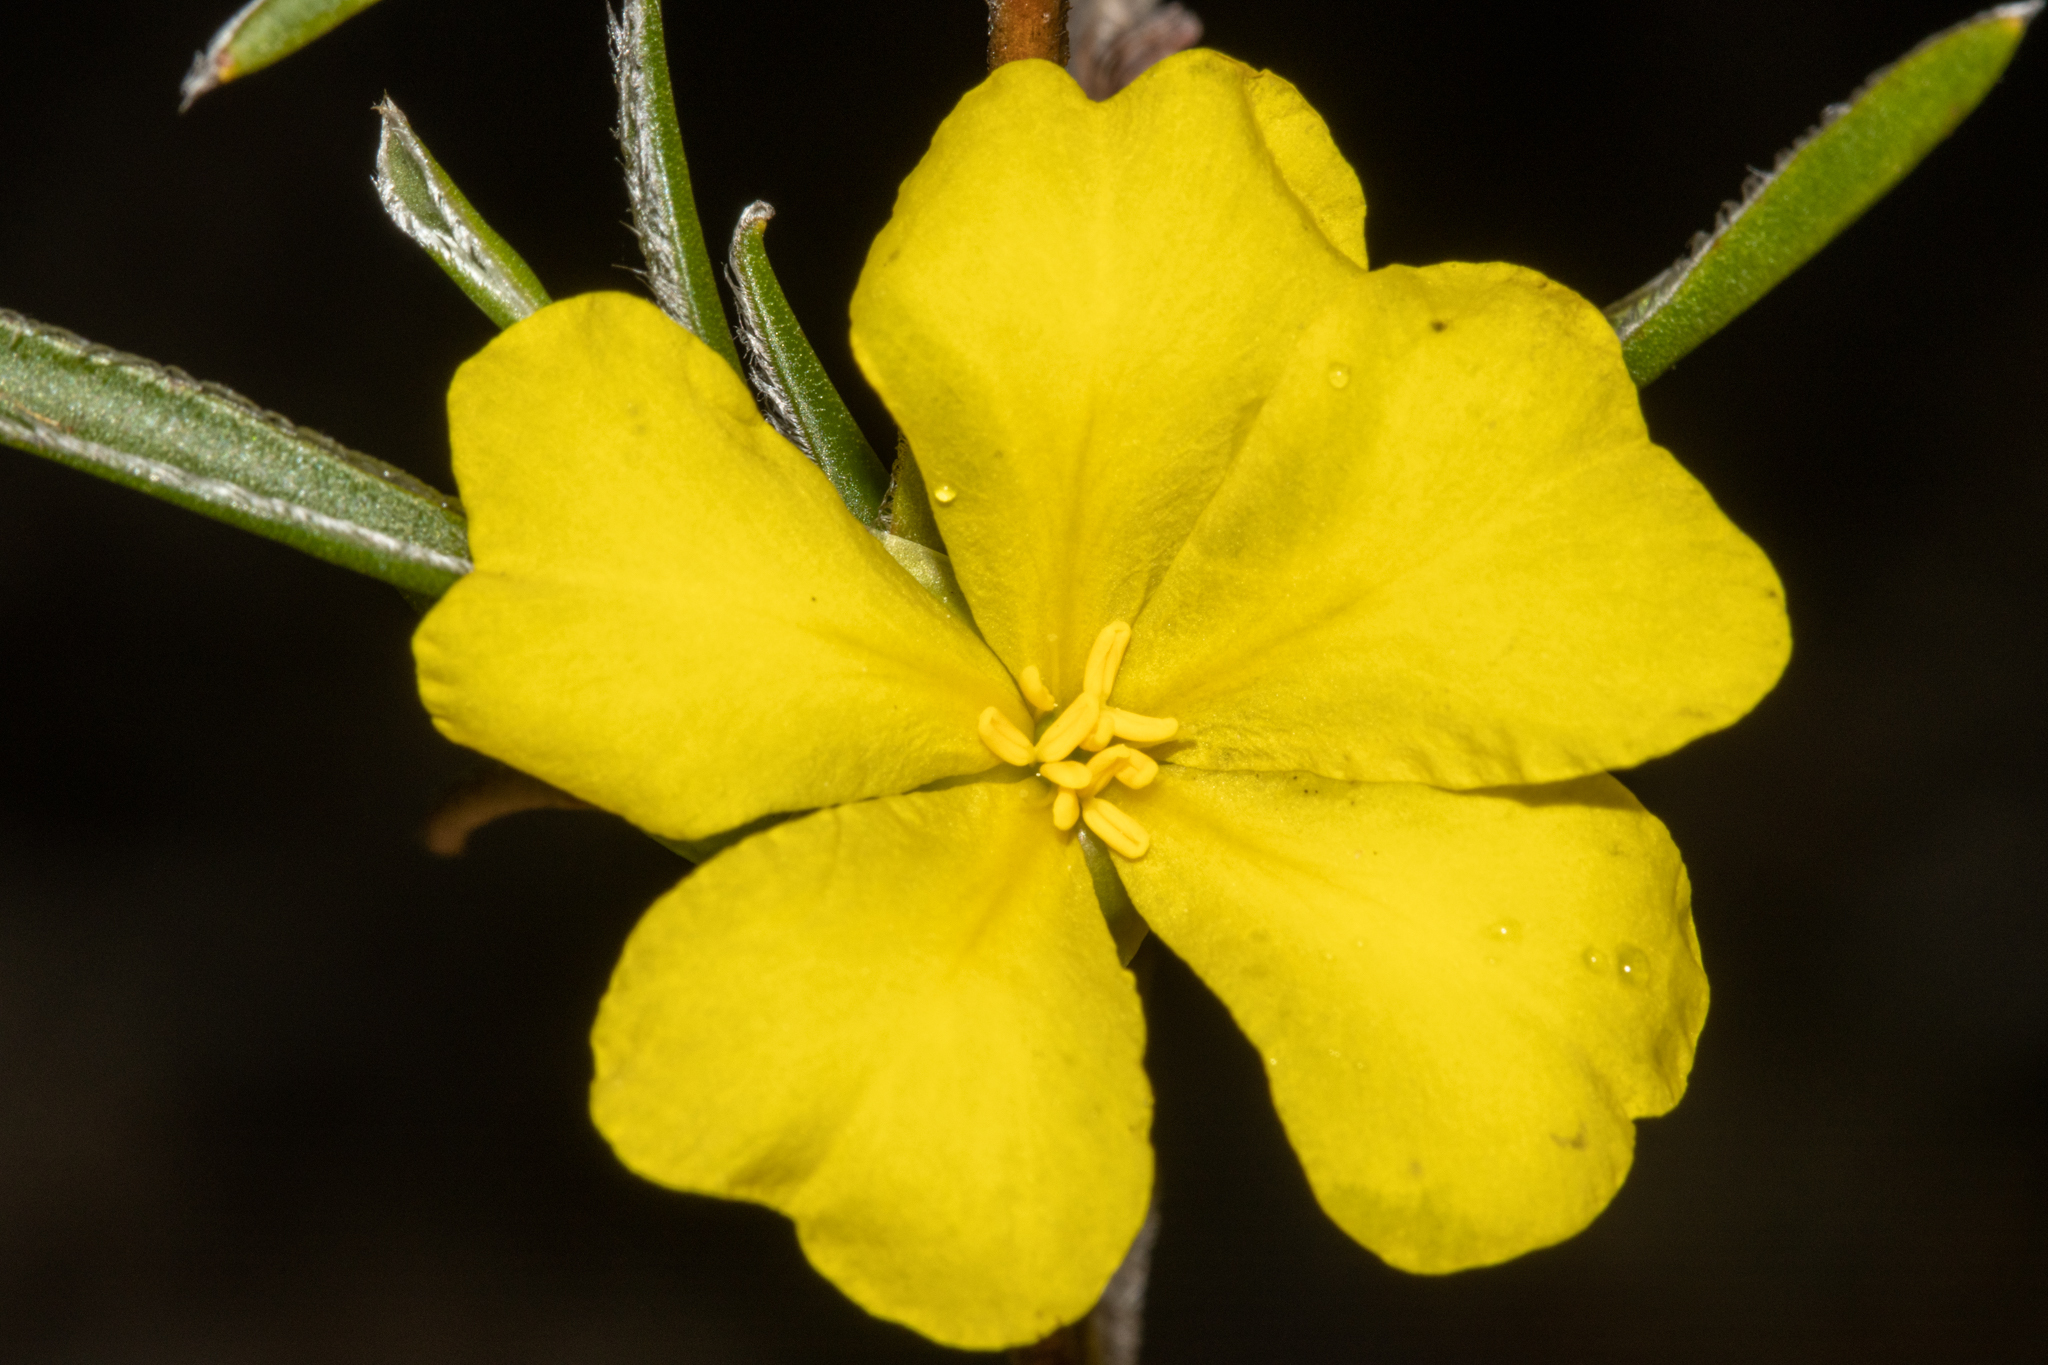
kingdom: Plantae
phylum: Tracheophyta
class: Magnoliopsida
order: Dilleniales
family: Dilleniaceae
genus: Hibbertia
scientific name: Hibbertia vaginata
